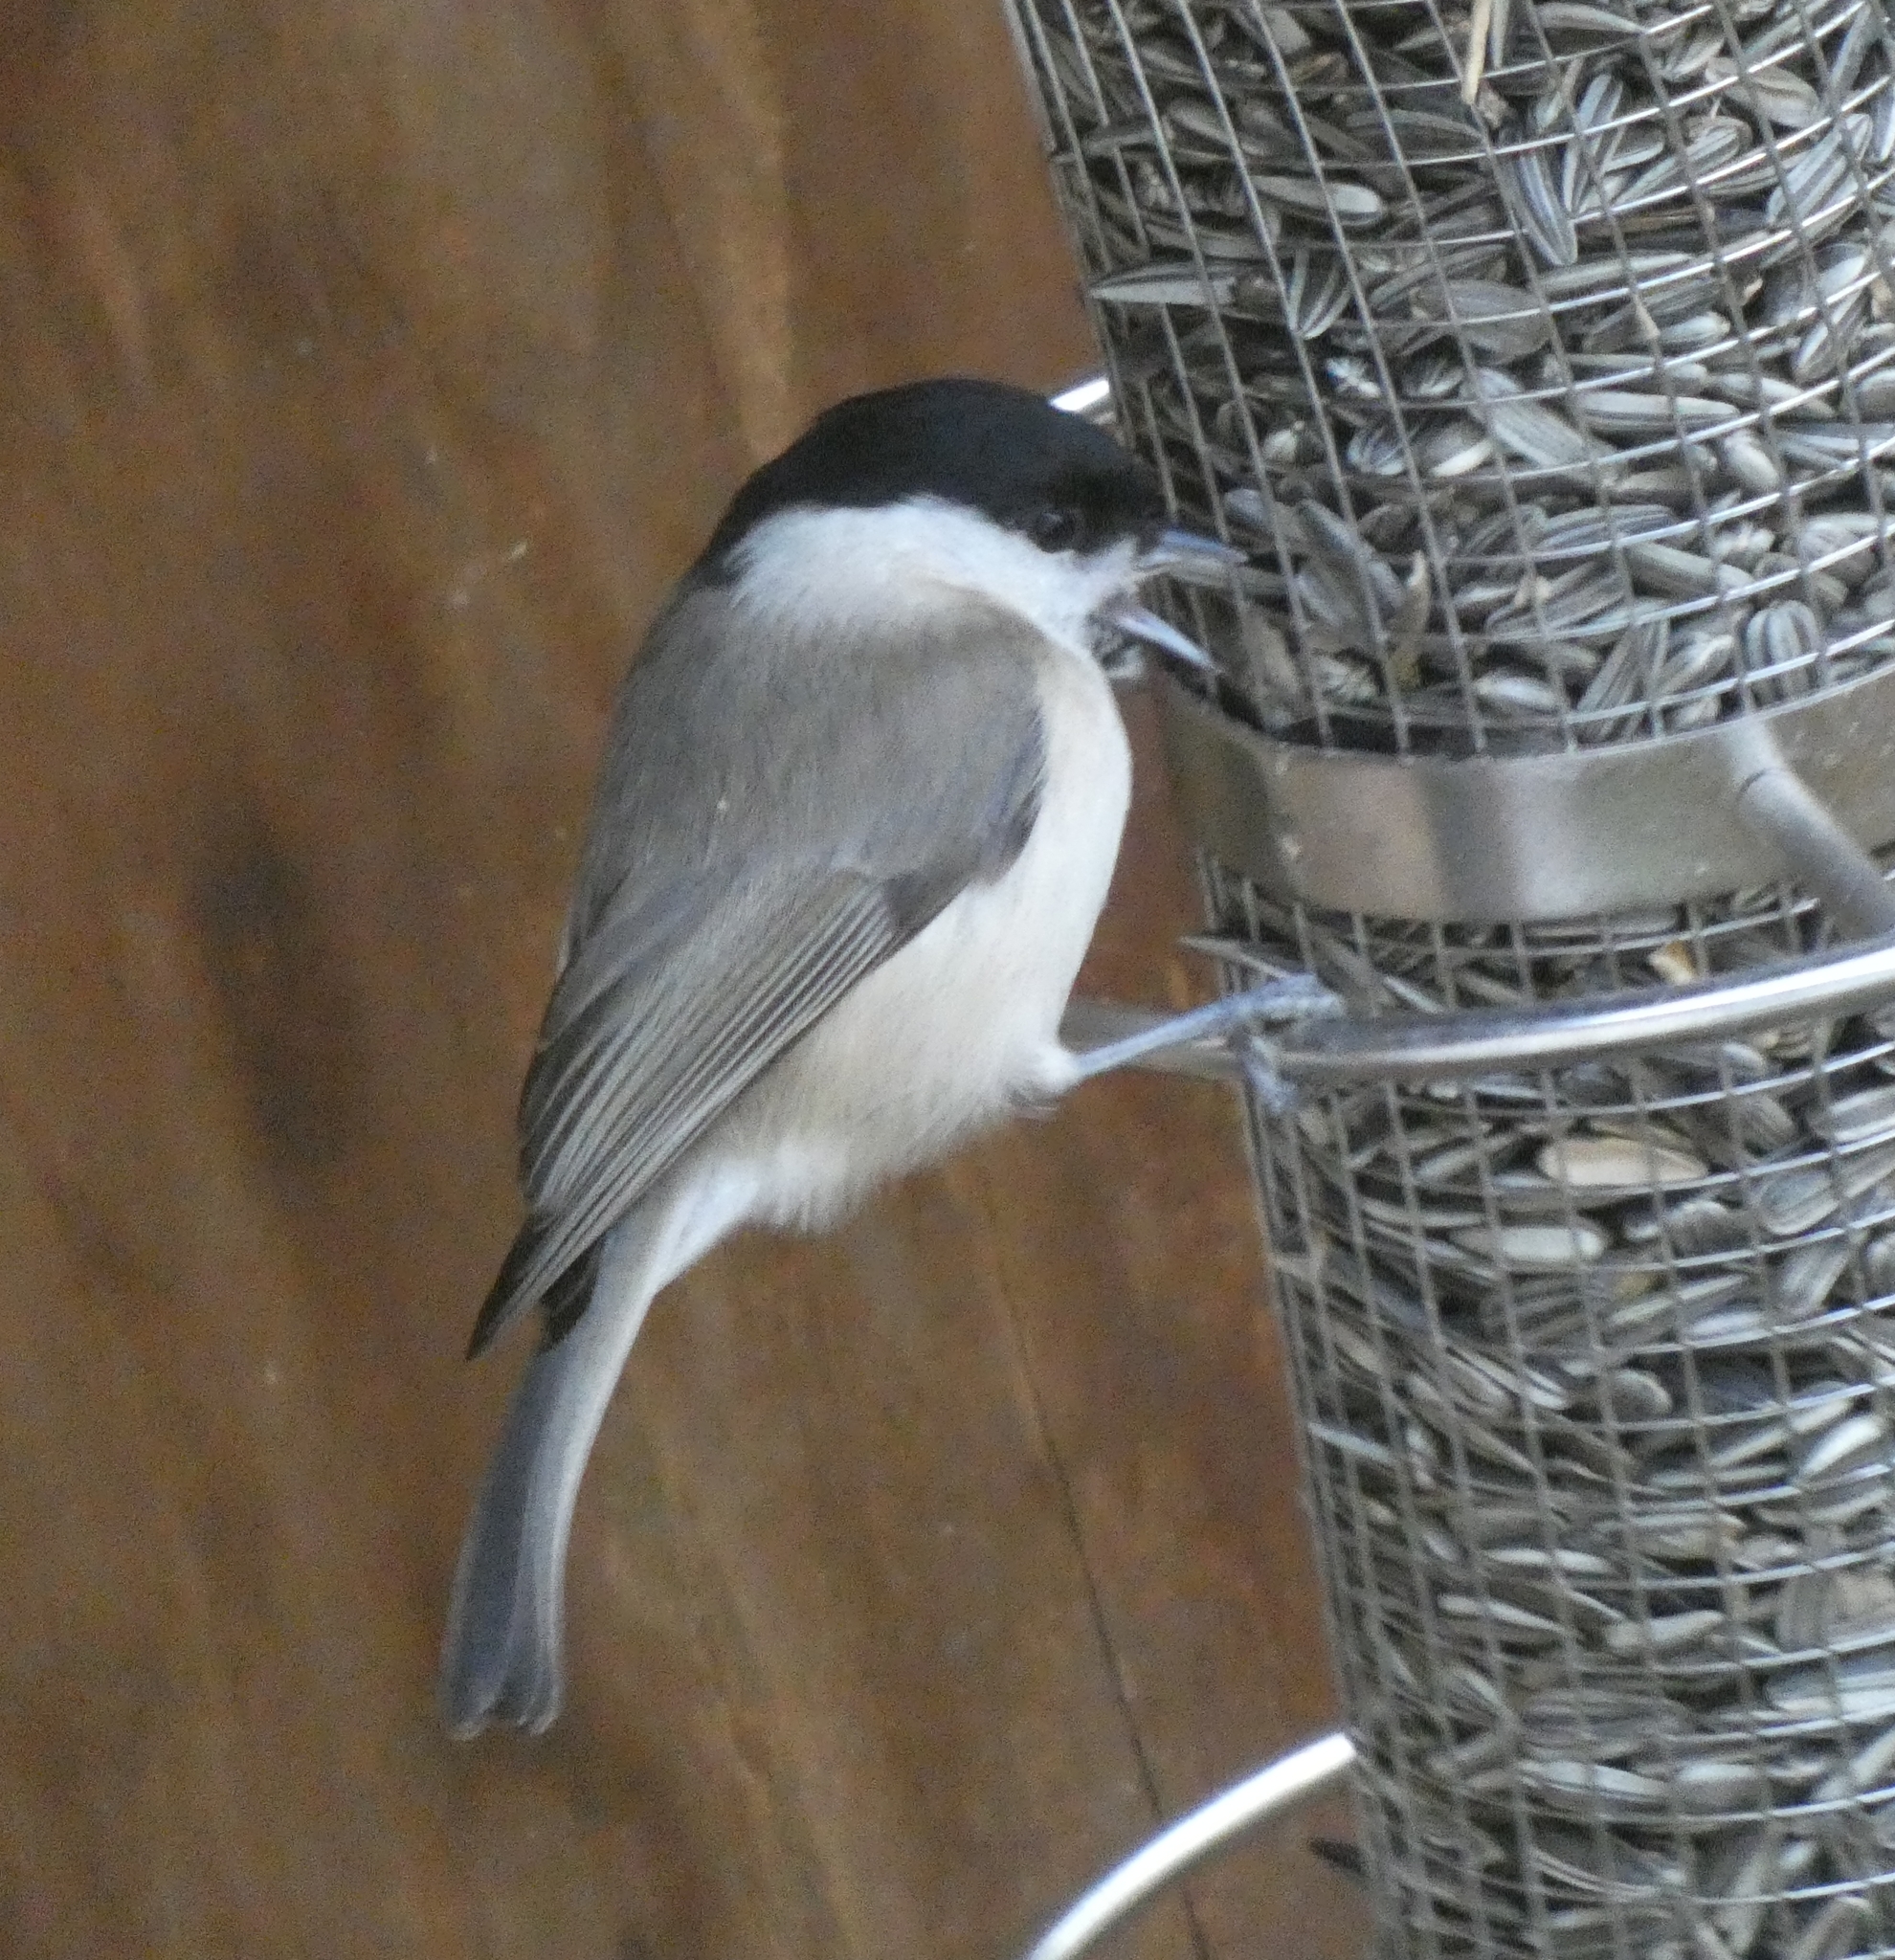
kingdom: Animalia
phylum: Chordata
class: Aves
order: Passeriformes
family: Paridae
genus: Poecile
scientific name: Poecile palustris
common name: Marsh tit
